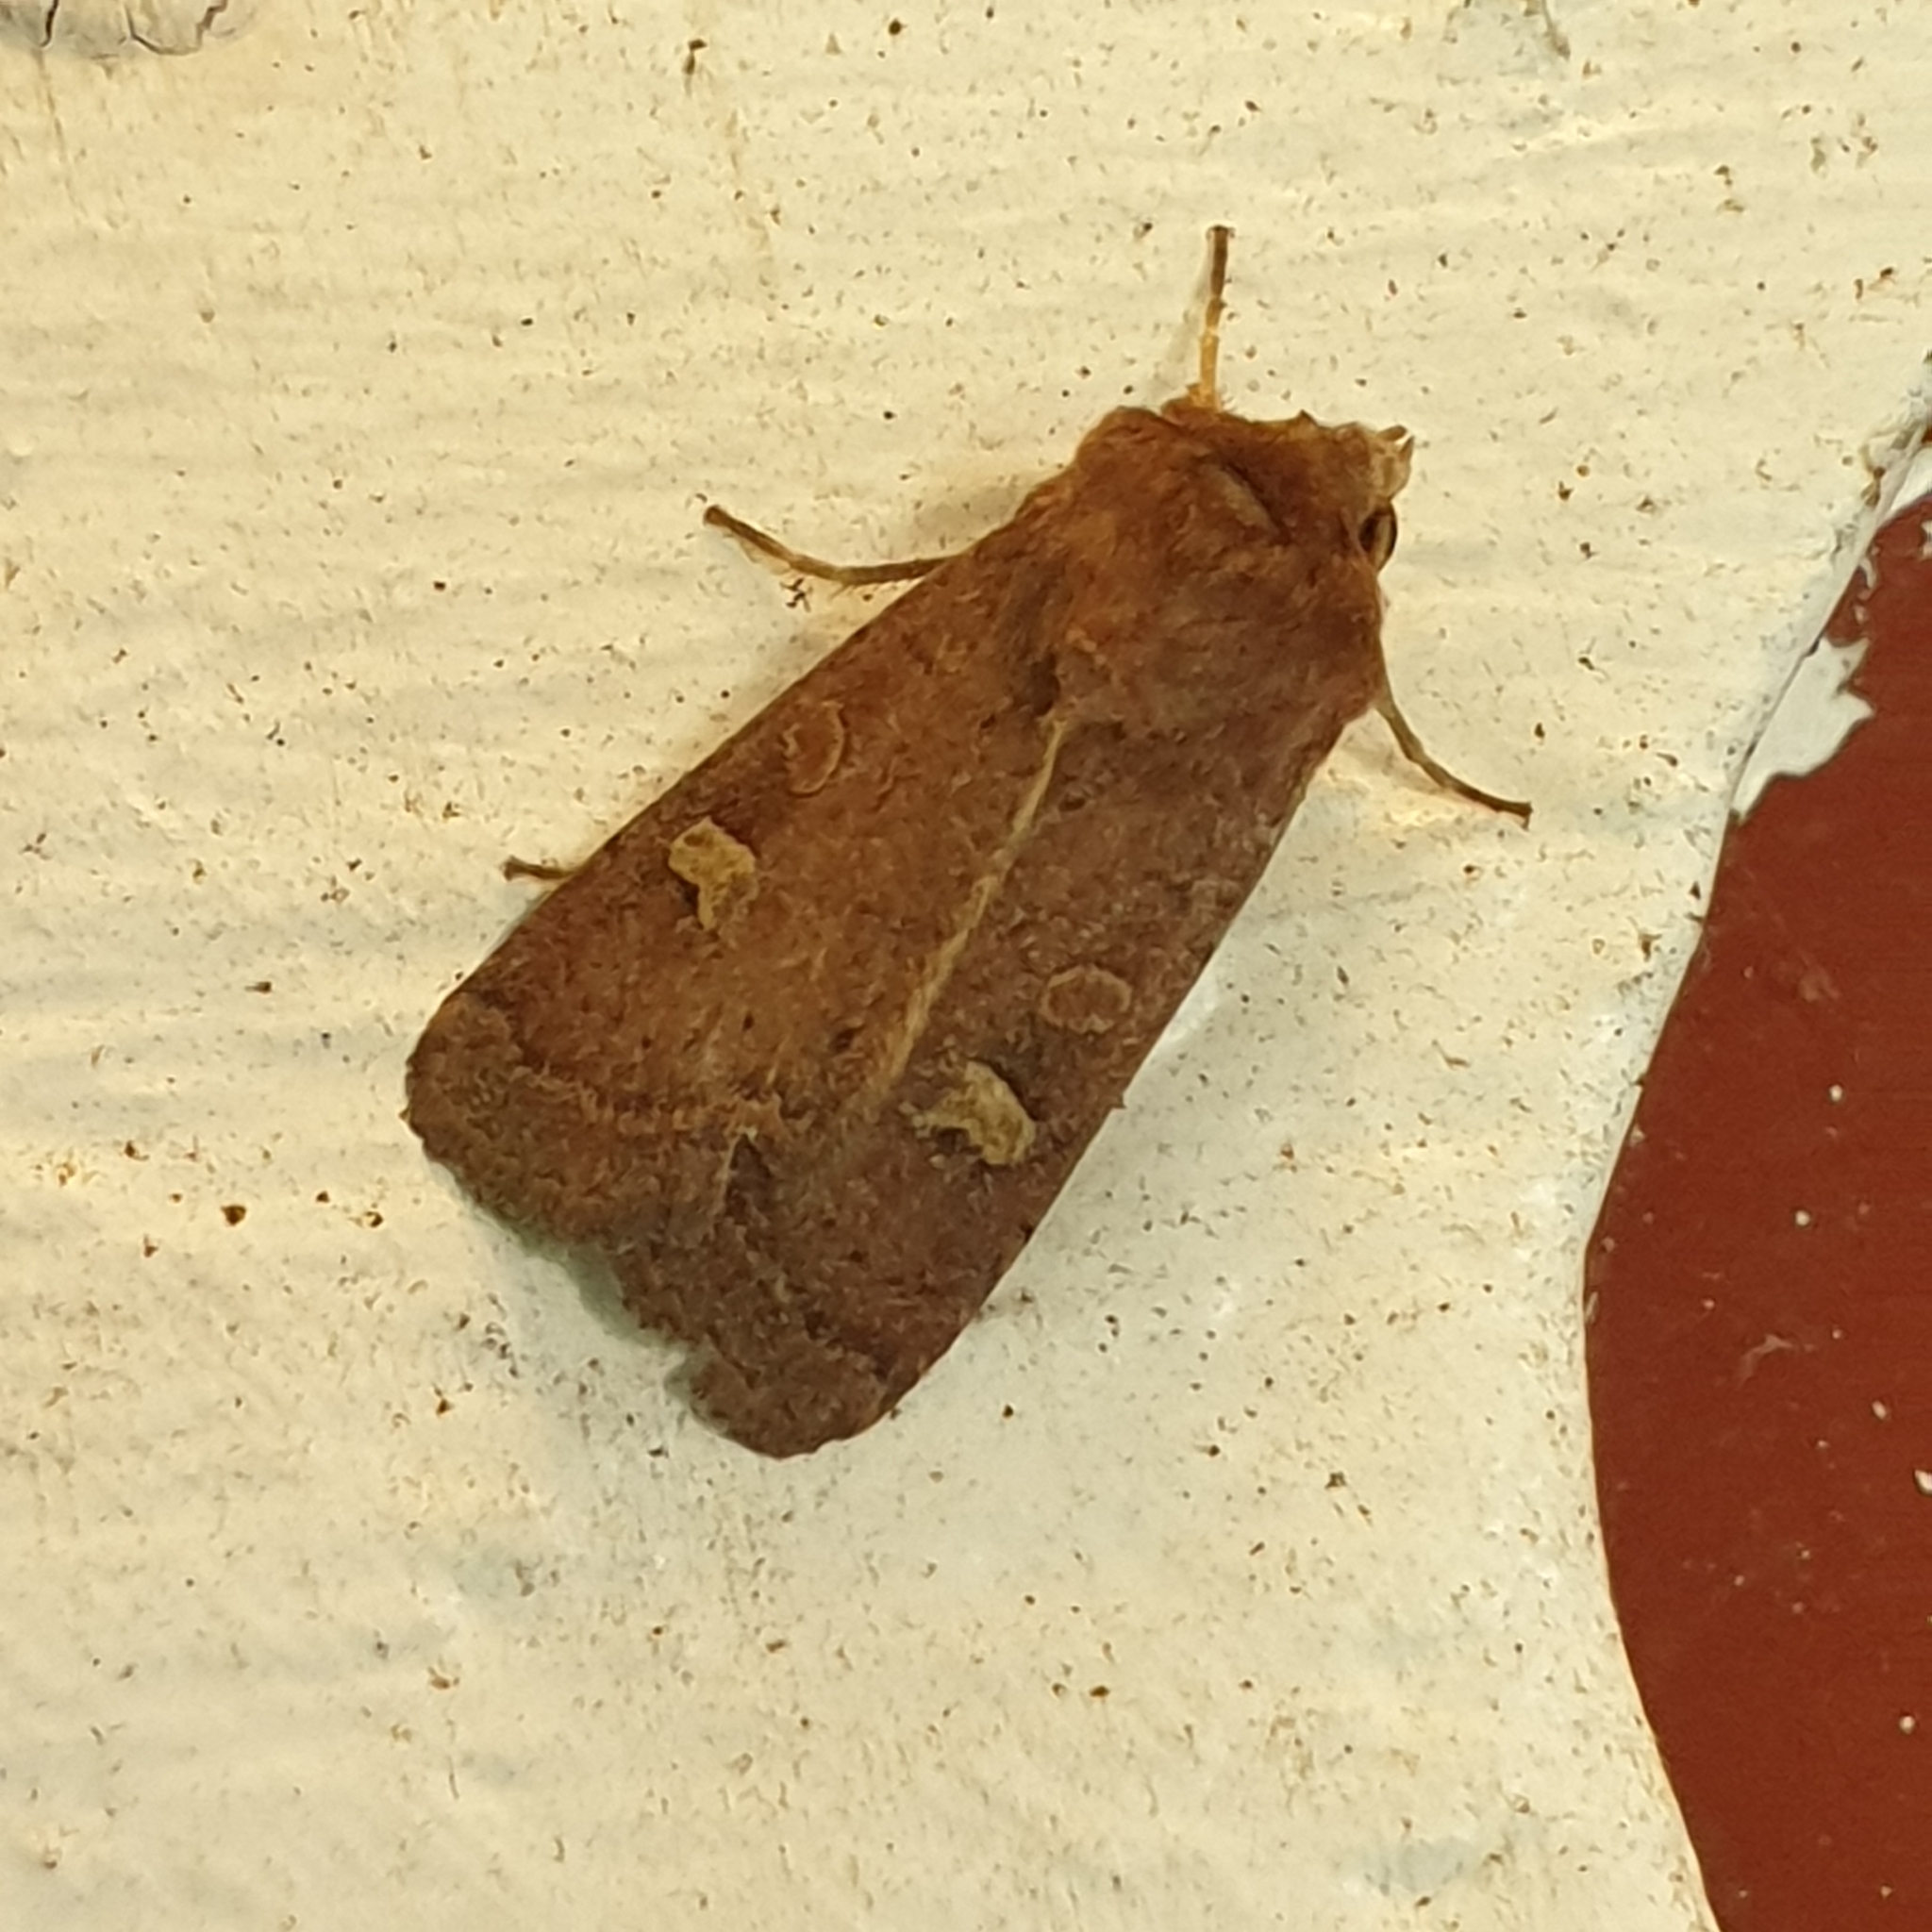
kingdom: Animalia
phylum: Arthropoda
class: Insecta
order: Lepidoptera
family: Noctuidae
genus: Xestia
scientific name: Xestia xanthographa
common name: Square-spot rustic
